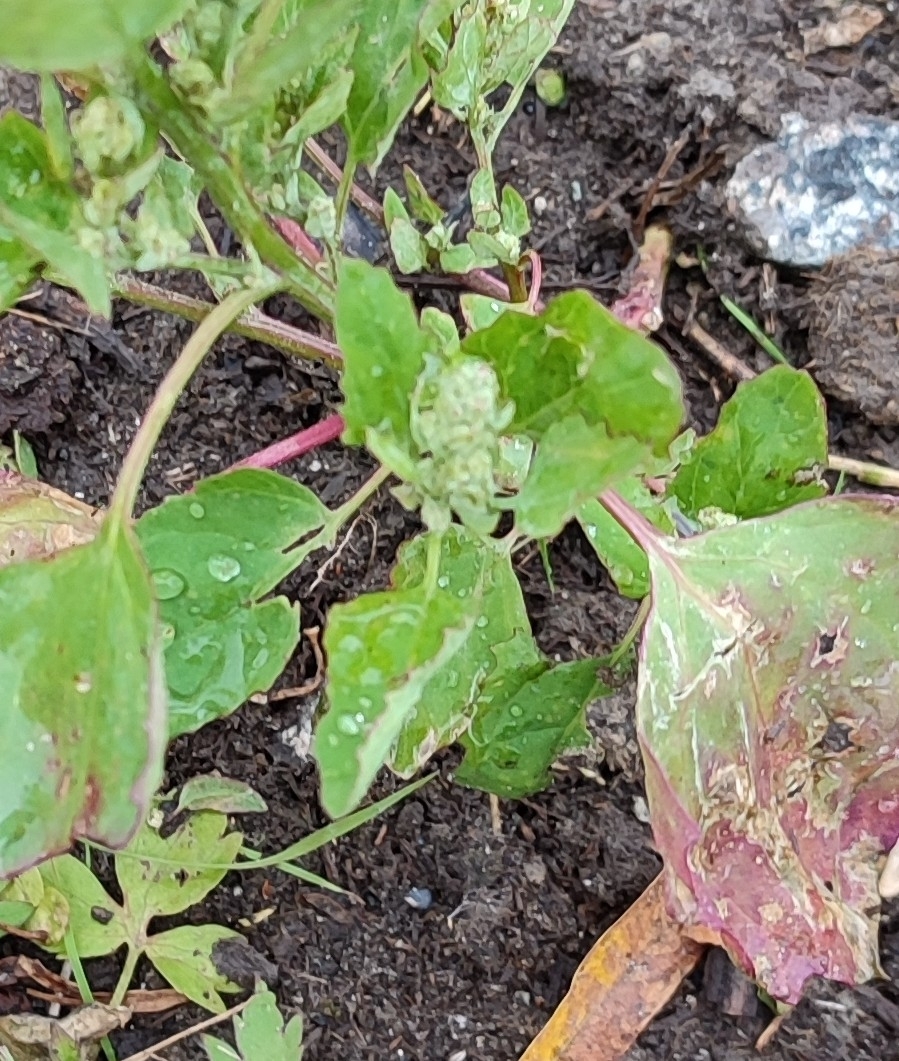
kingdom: Plantae
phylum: Tracheophyta
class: Magnoliopsida
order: Caryophyllales
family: Amaranthaceae
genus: Chenopodium
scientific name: Chenopodium album
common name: Fat-hen
